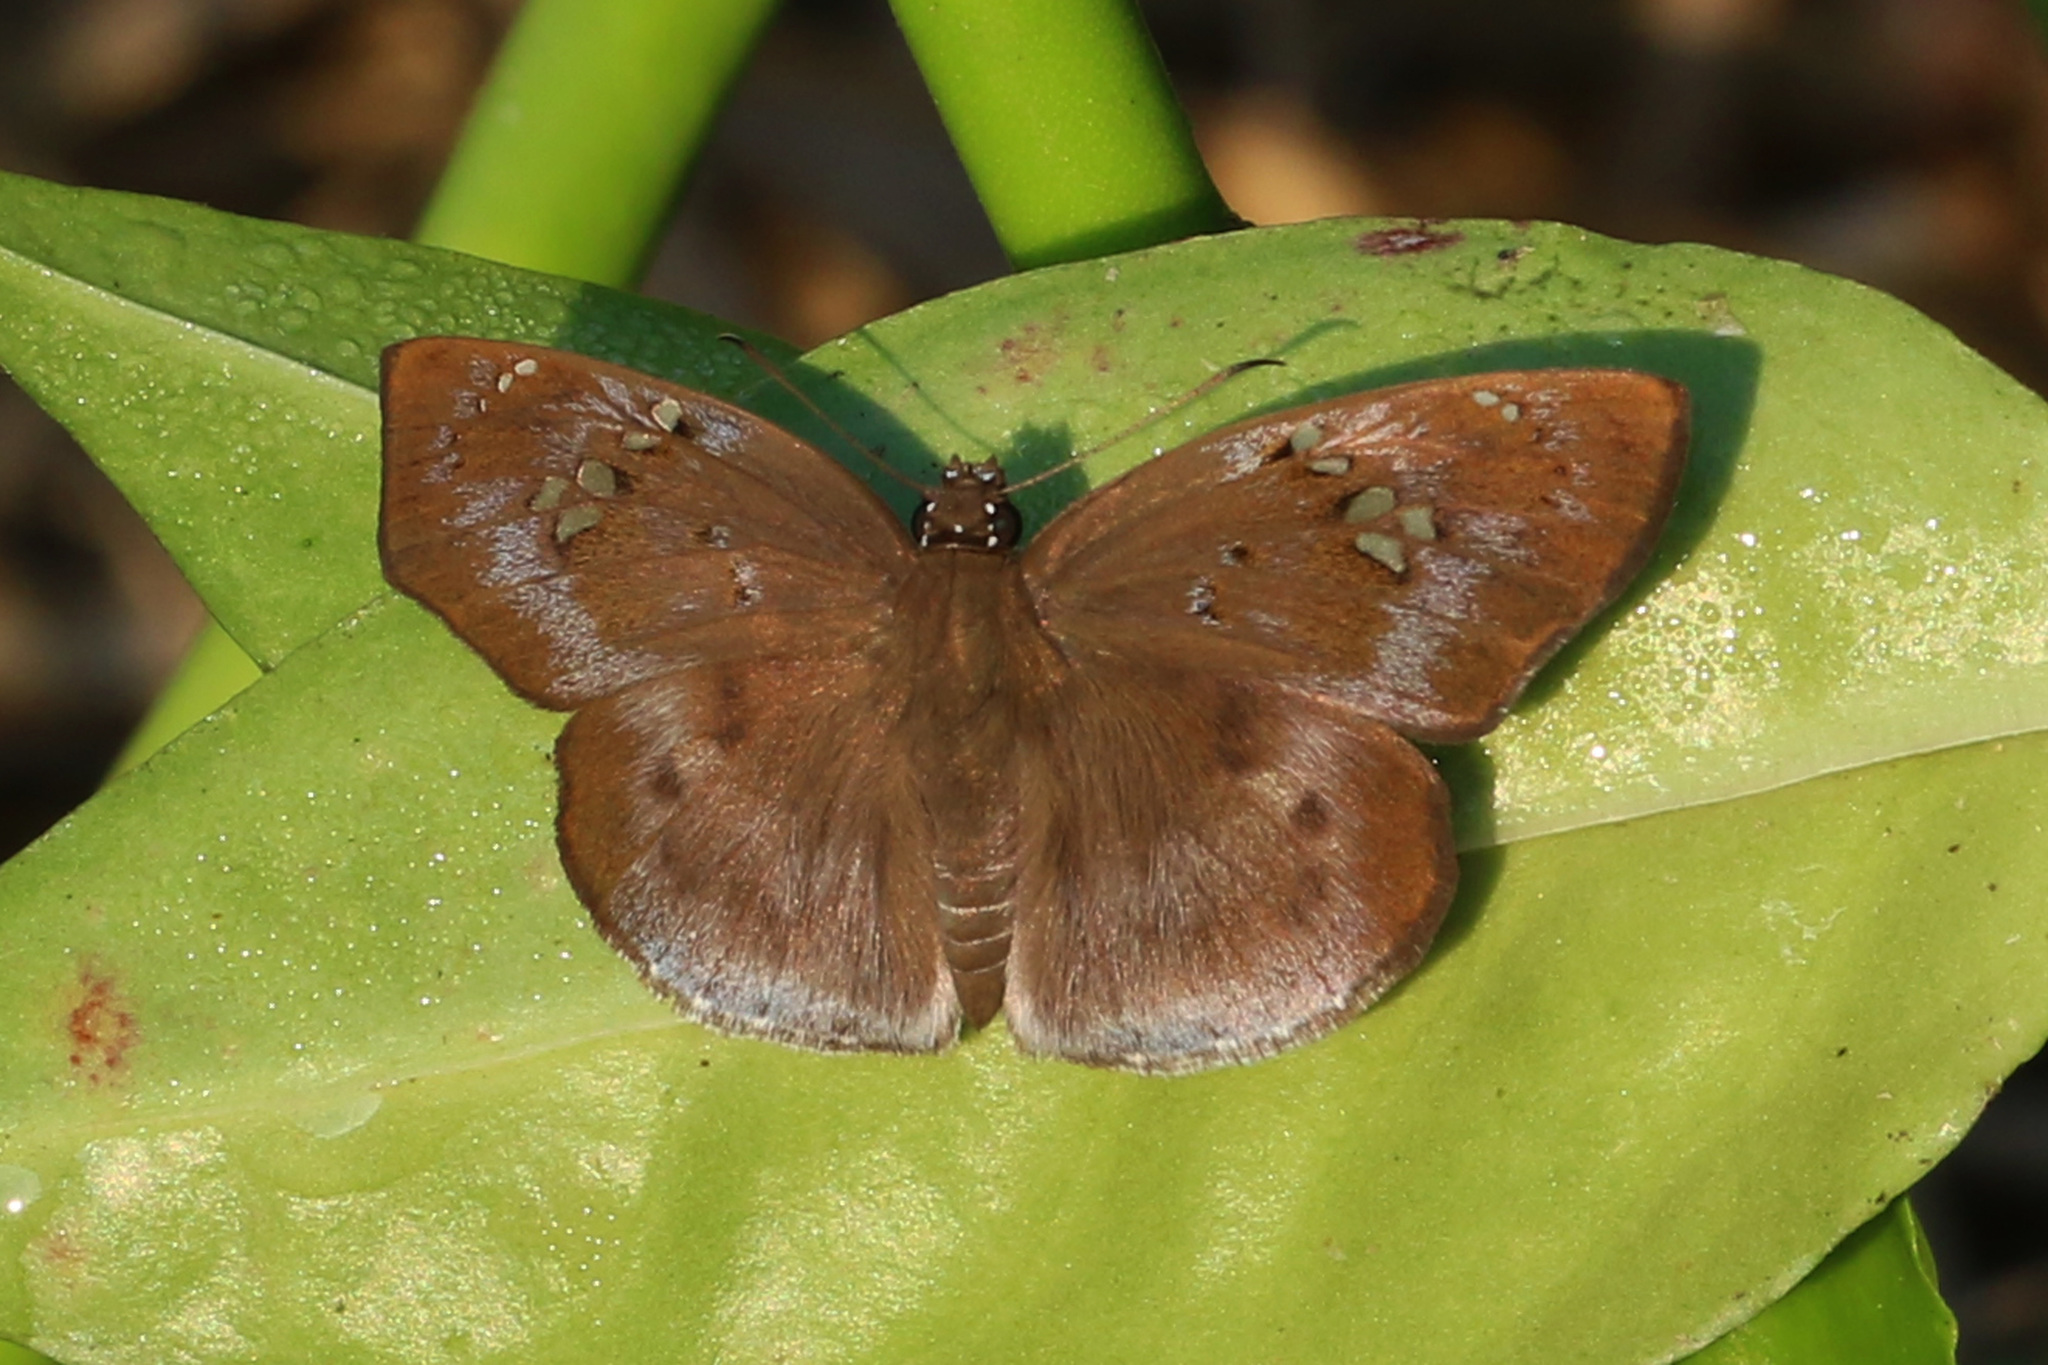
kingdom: Animalia
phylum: Arthropoda
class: Insecta
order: Lepidoptera
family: Hesperiidae
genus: Tagiades
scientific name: Tagiades flesus
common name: Clouded flat
